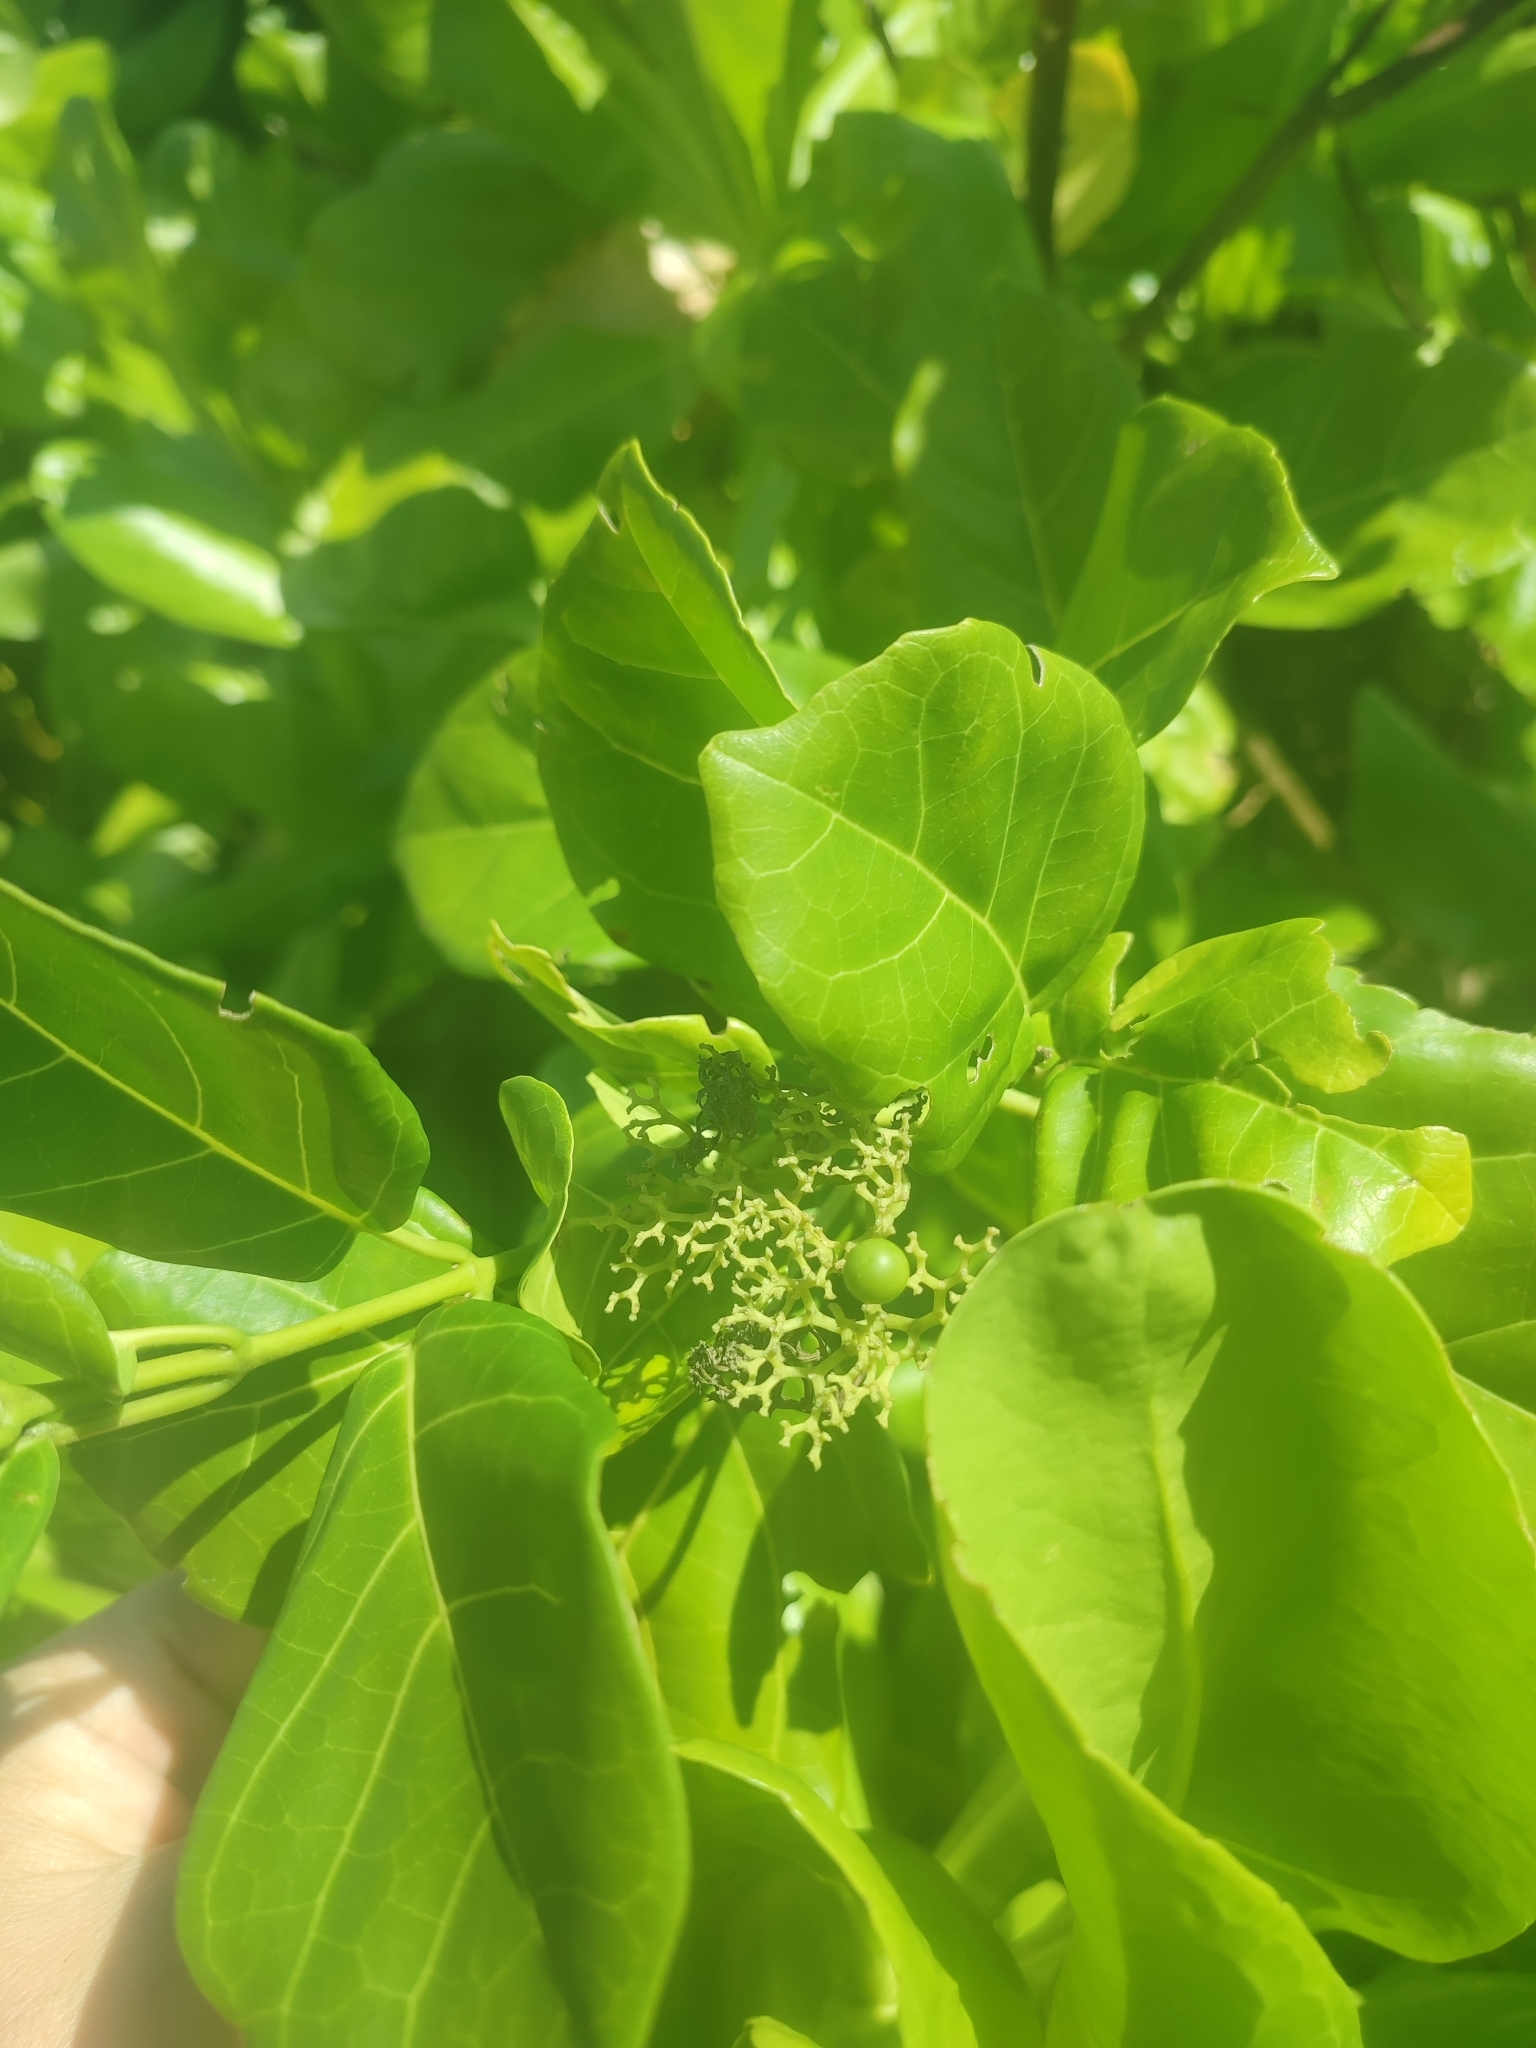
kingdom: Plantae
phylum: Tracheophyta
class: Magnoliopsida
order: Lamiales
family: Lamiaceae
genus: Premna
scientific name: Premna serratifolia
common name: Bastard guelder
